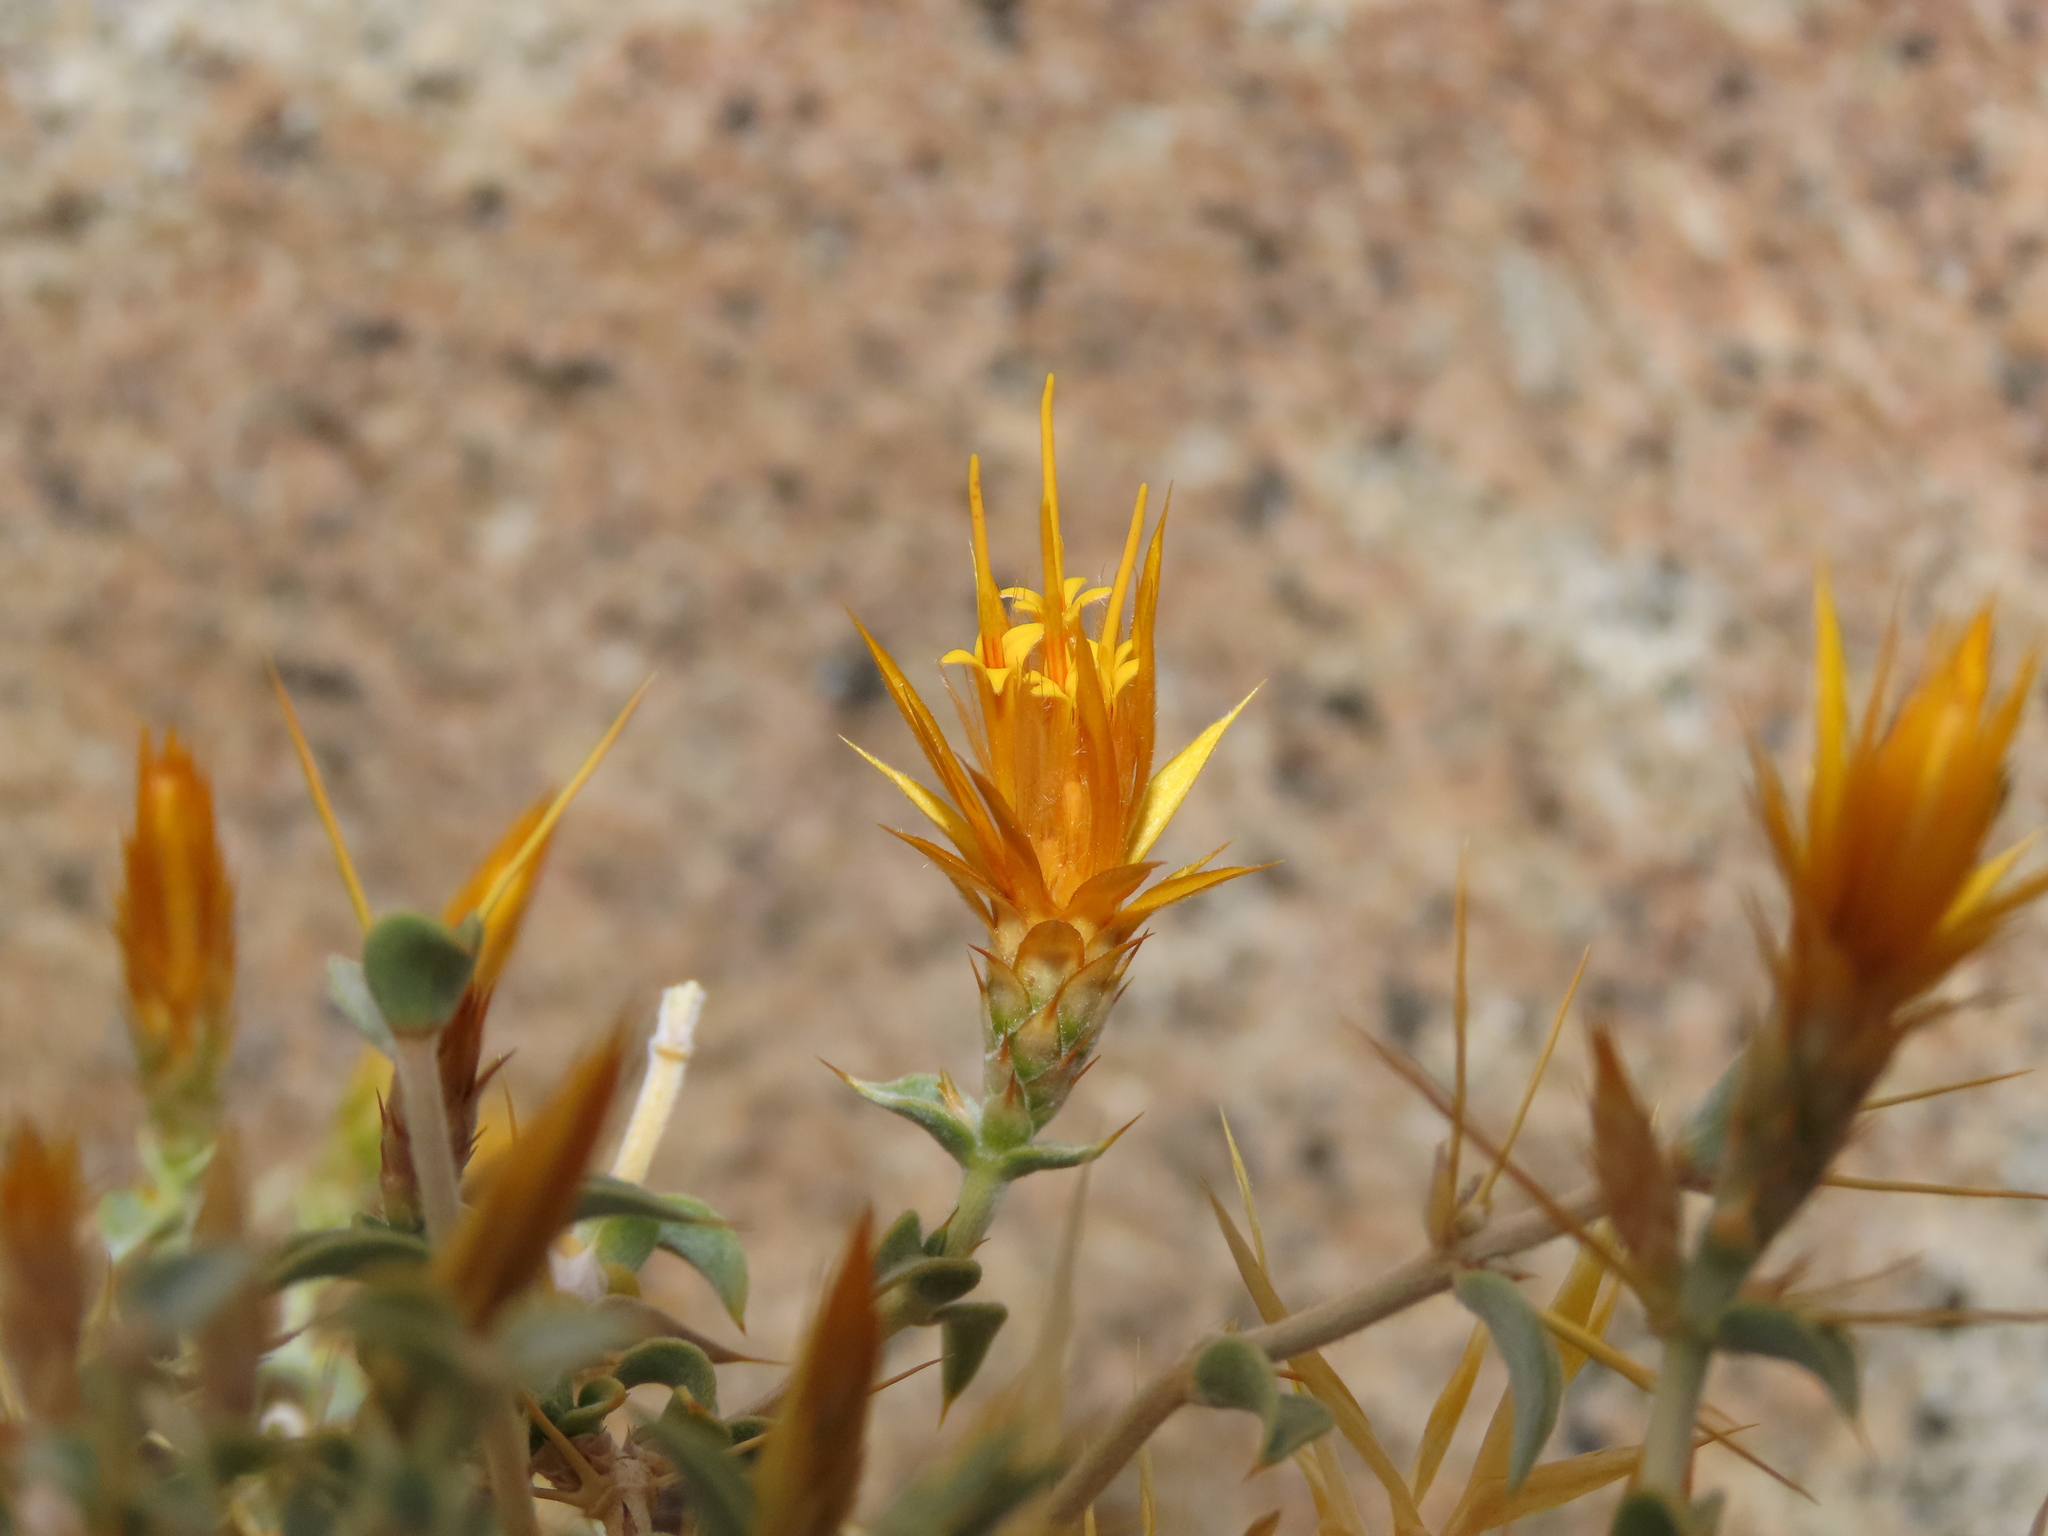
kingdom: Plantae
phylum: Tracheophyta
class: Magnoliopsida
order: Asterales
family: Asteraceae
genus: Chuquiraga
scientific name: Chuquiraga oppositifolia
